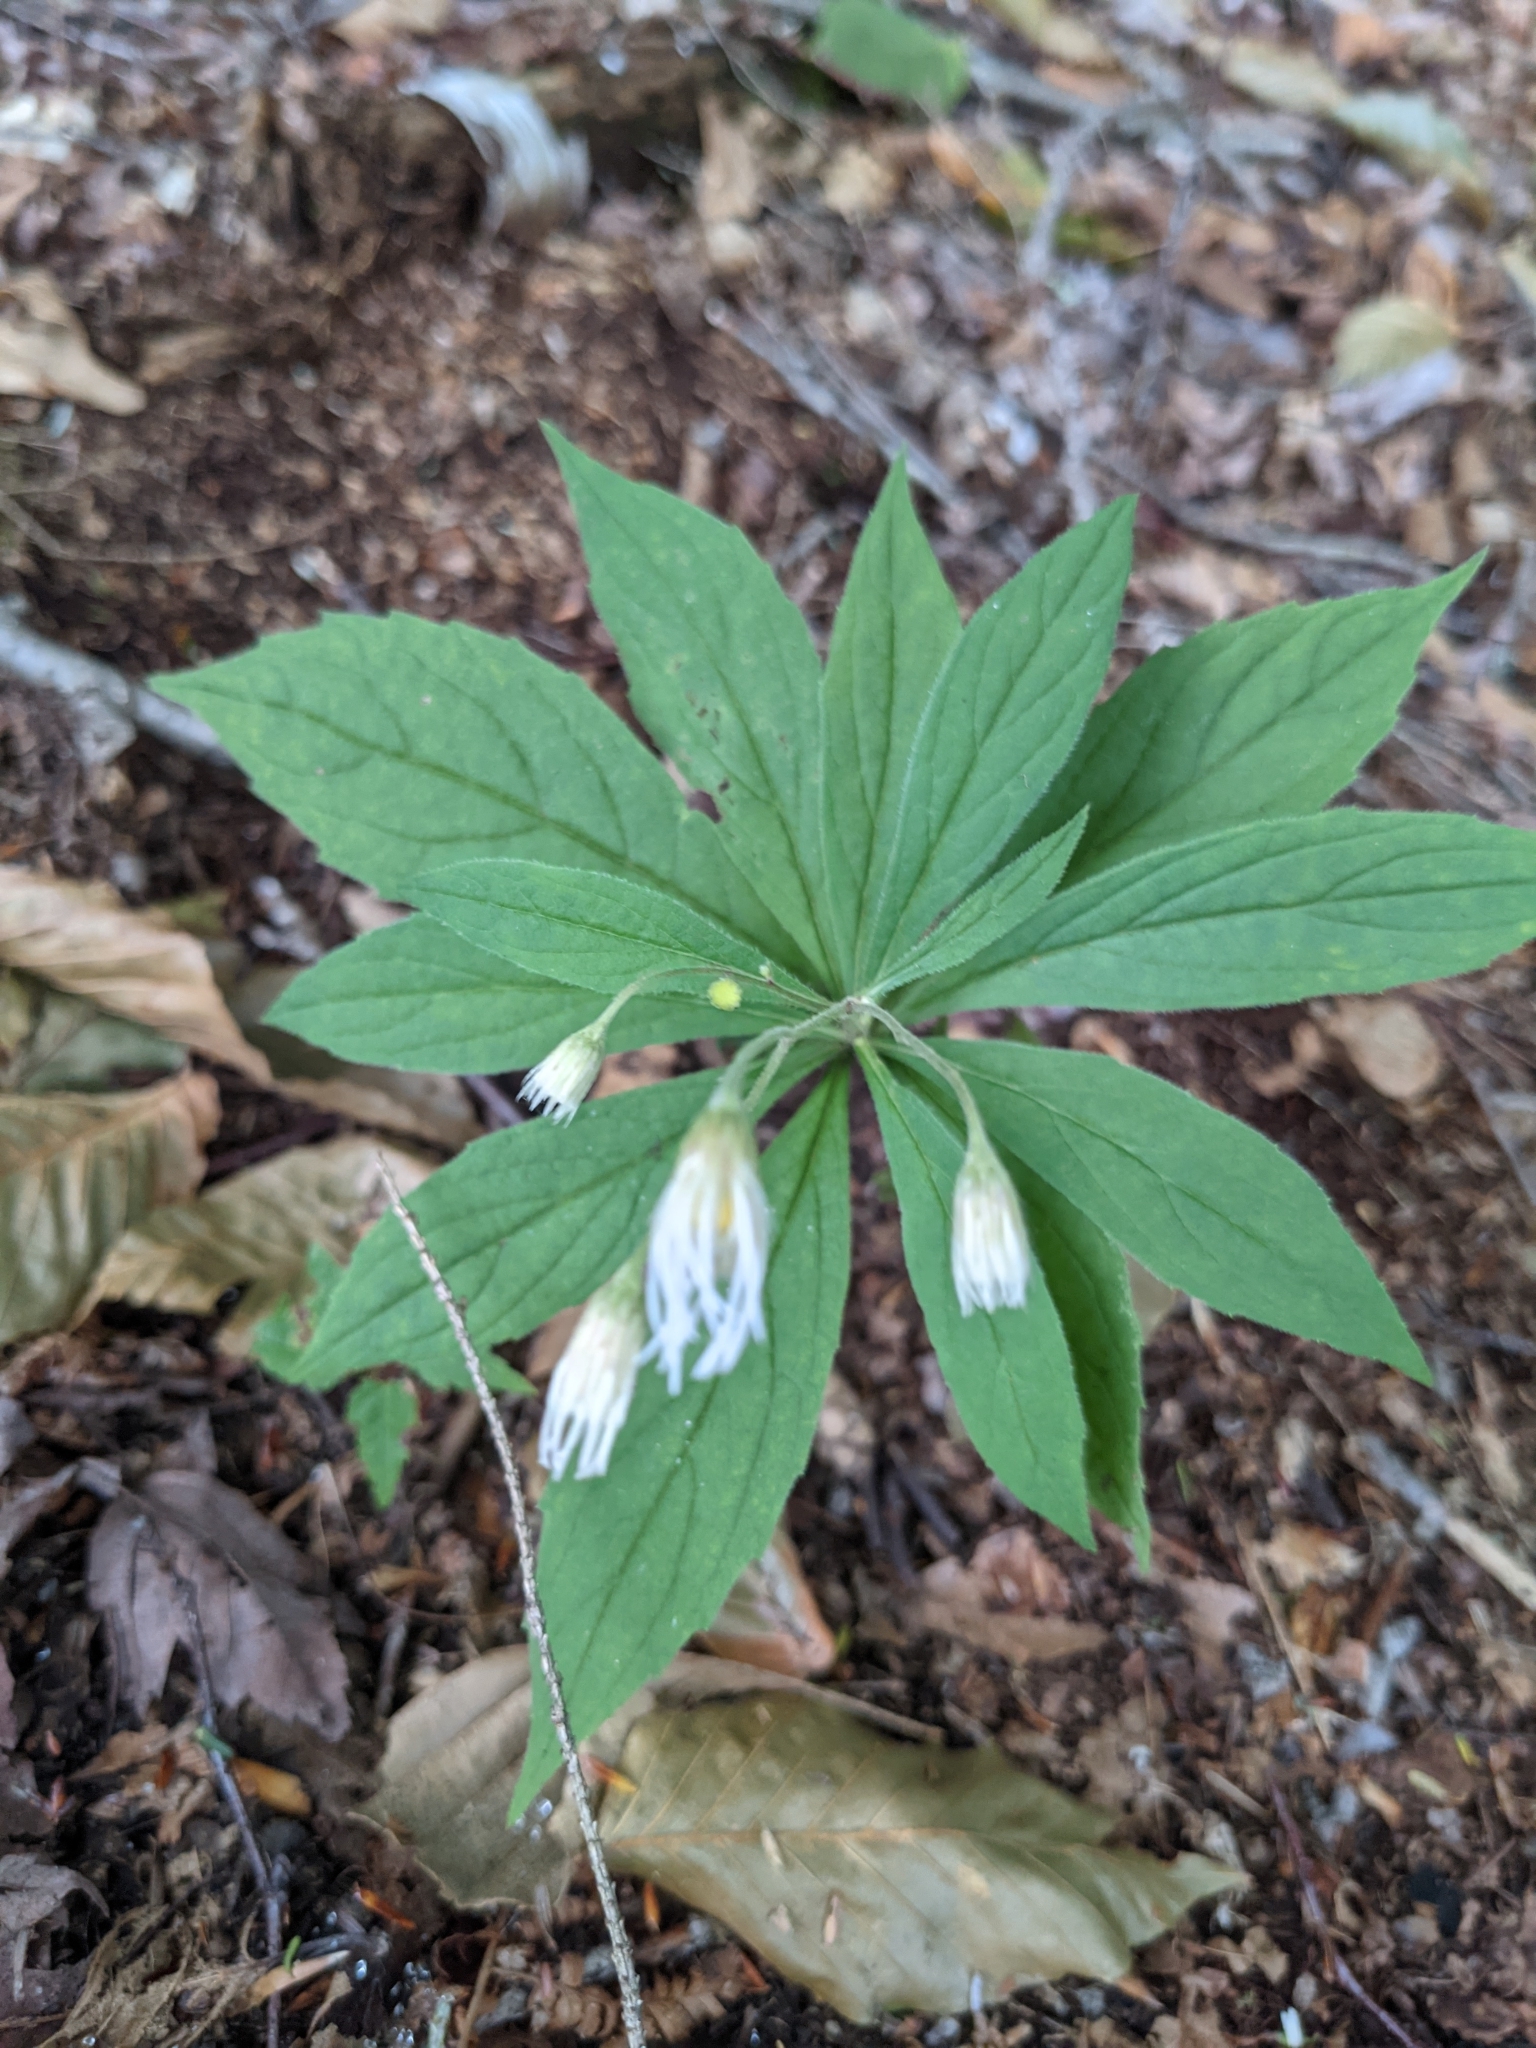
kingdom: Plantae
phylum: Tracheophyta
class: Magnoliopsida
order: Asterales
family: Asteraceae
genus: Oclemena
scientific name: Oclemena acuminata
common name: Mountain aster
